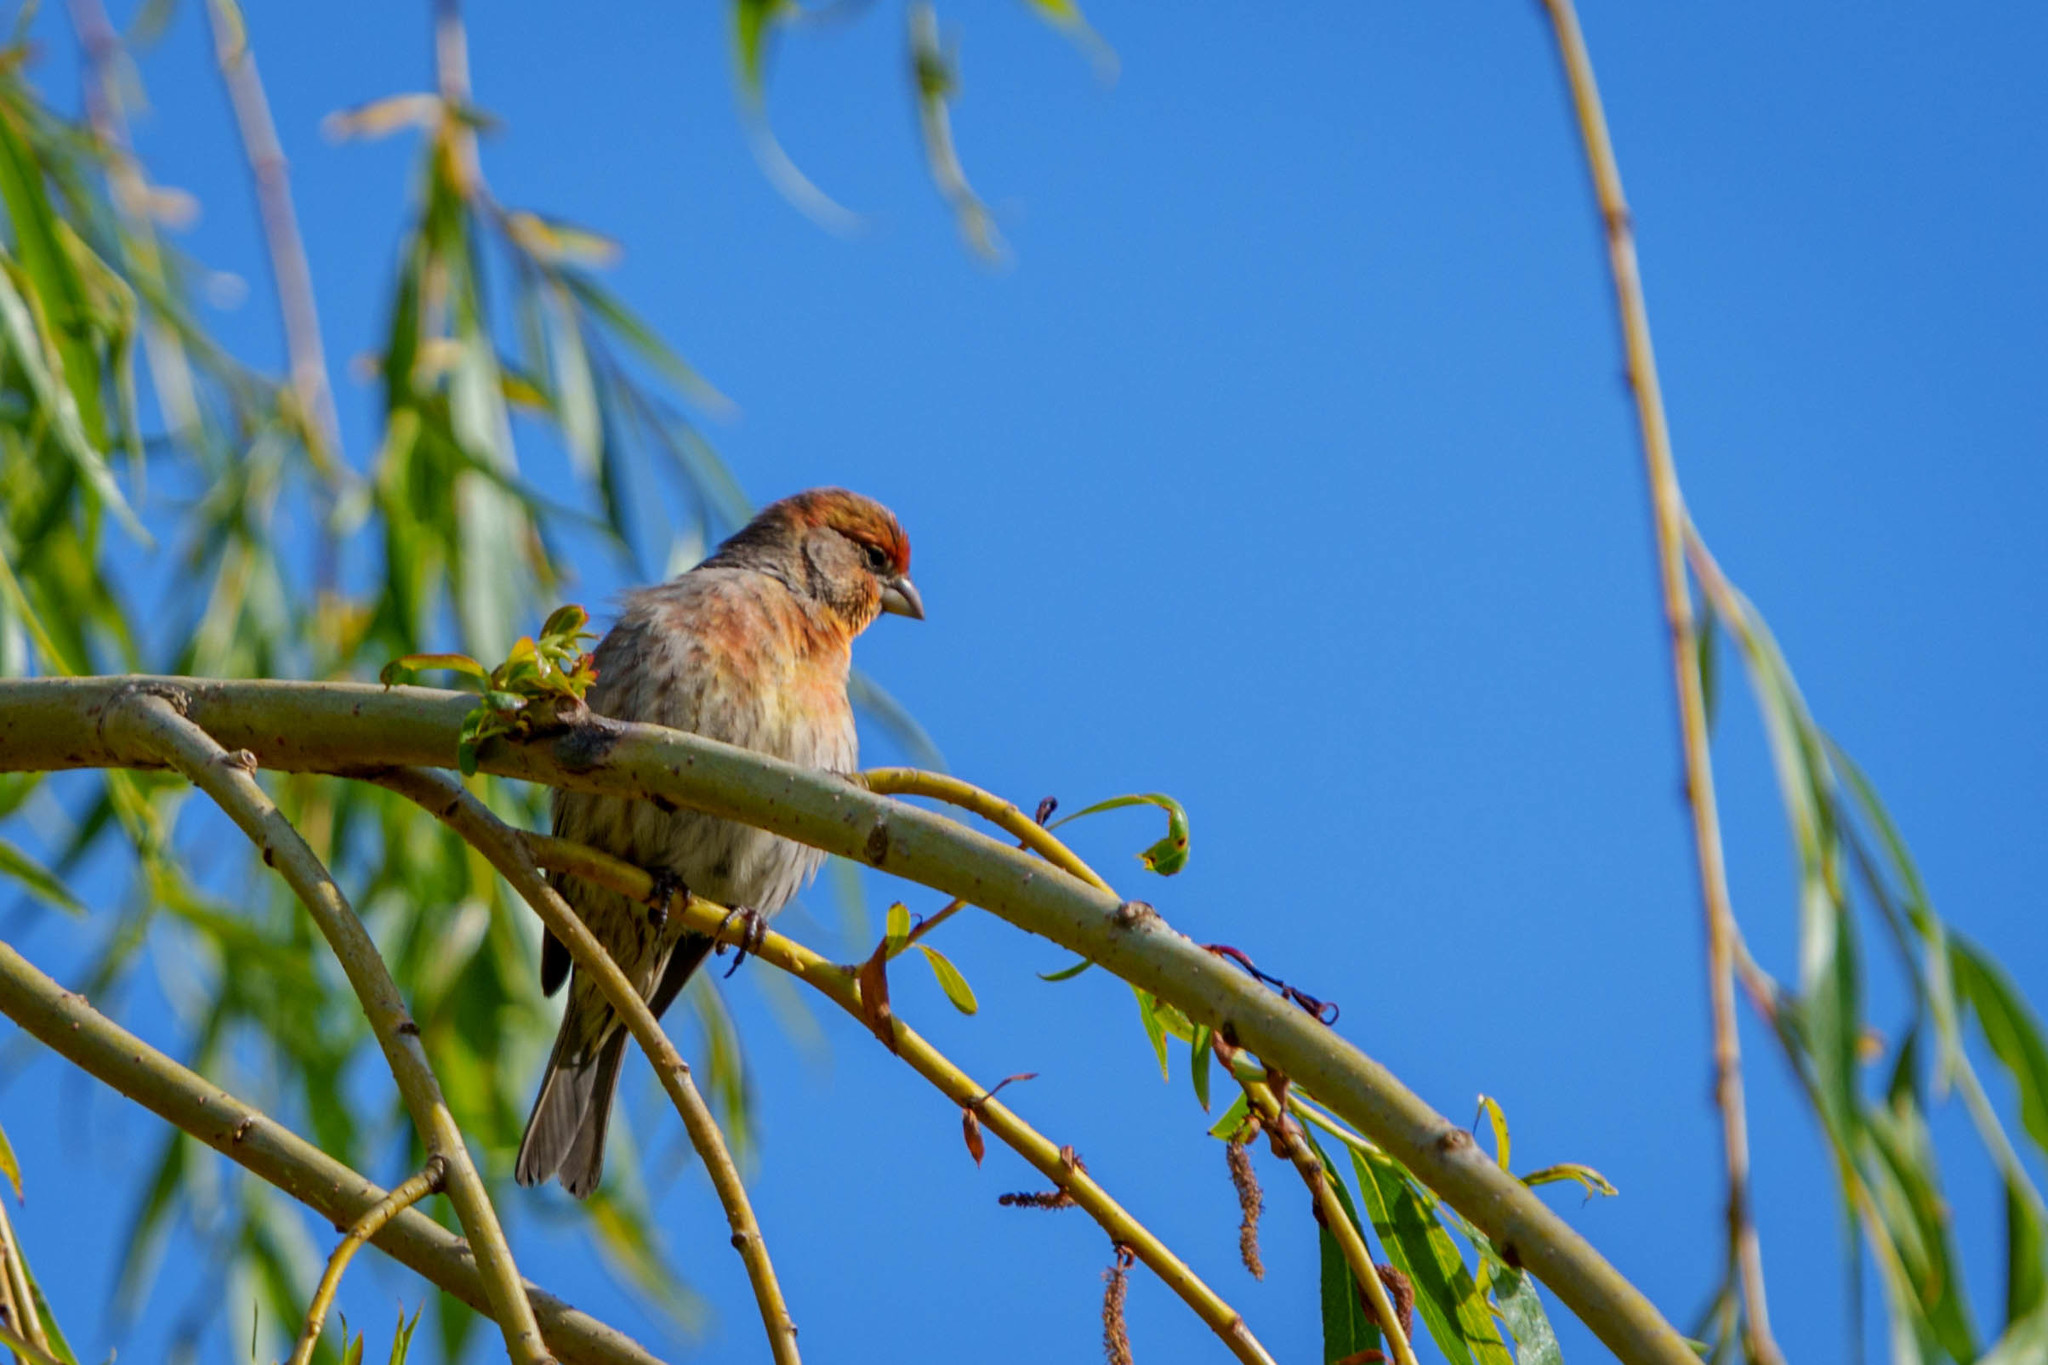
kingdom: Animalia
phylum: Chordata
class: Aves
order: Passeriformes
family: Fringillidae
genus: Haemorhous
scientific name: Haemorhous mexicanus
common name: House finch
